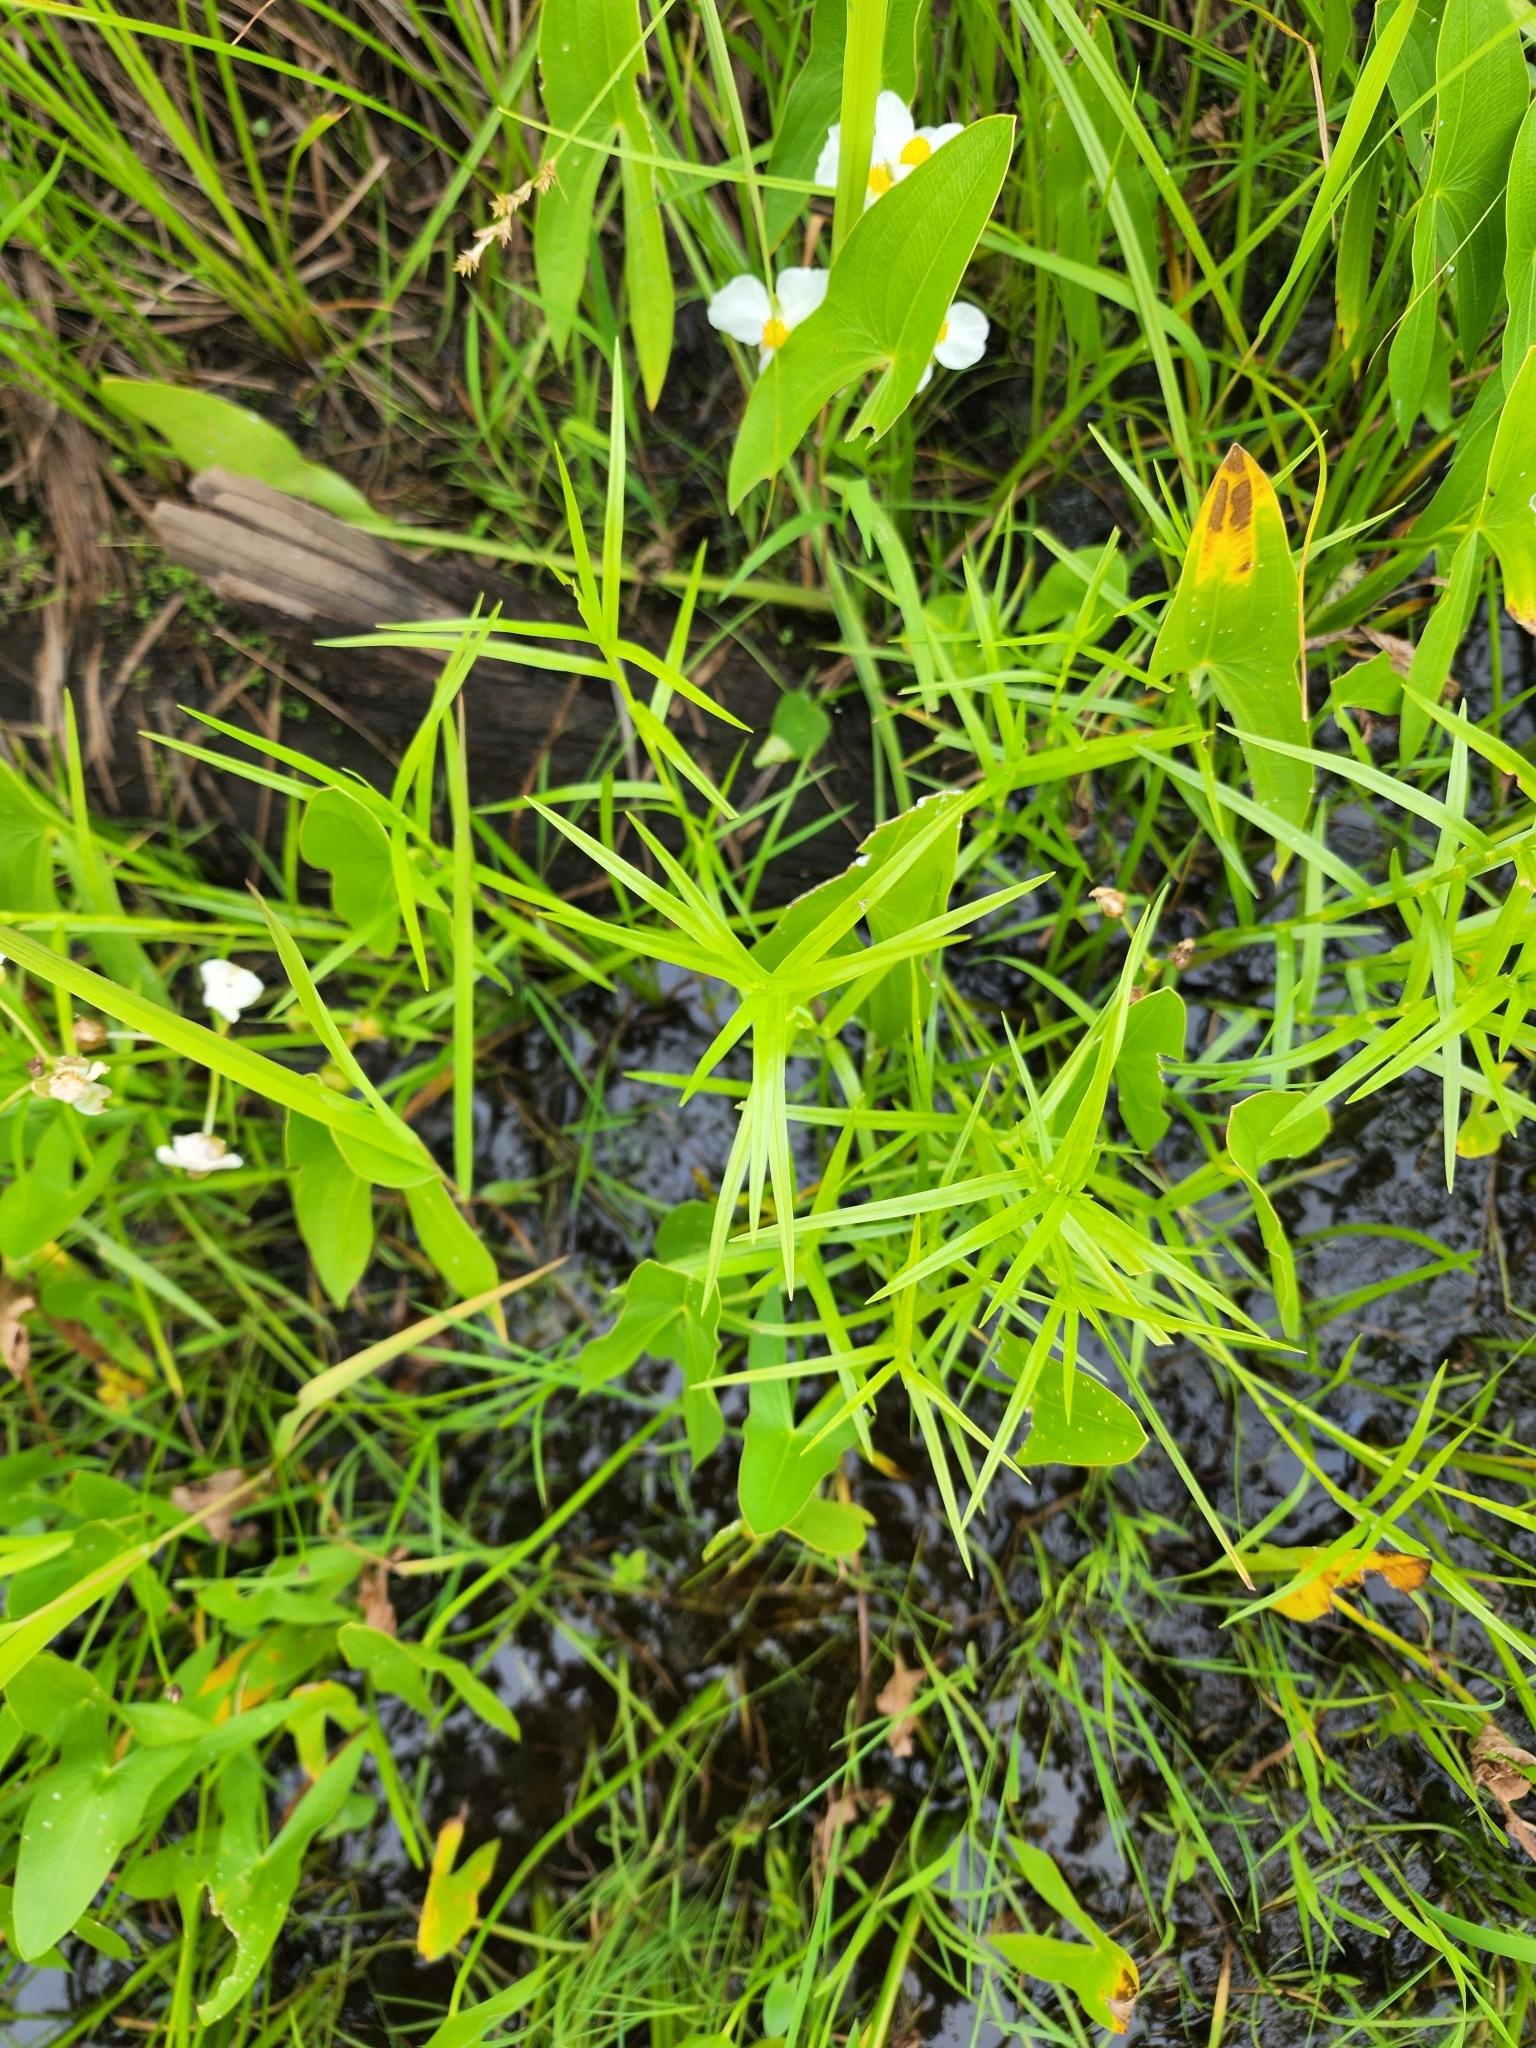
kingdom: Plantae
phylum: Tracheophyta
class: Liliopsida
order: Poales
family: Cyperaceae
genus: Dulichium
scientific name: Dulichium arundinaceum
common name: Three-way sedge
